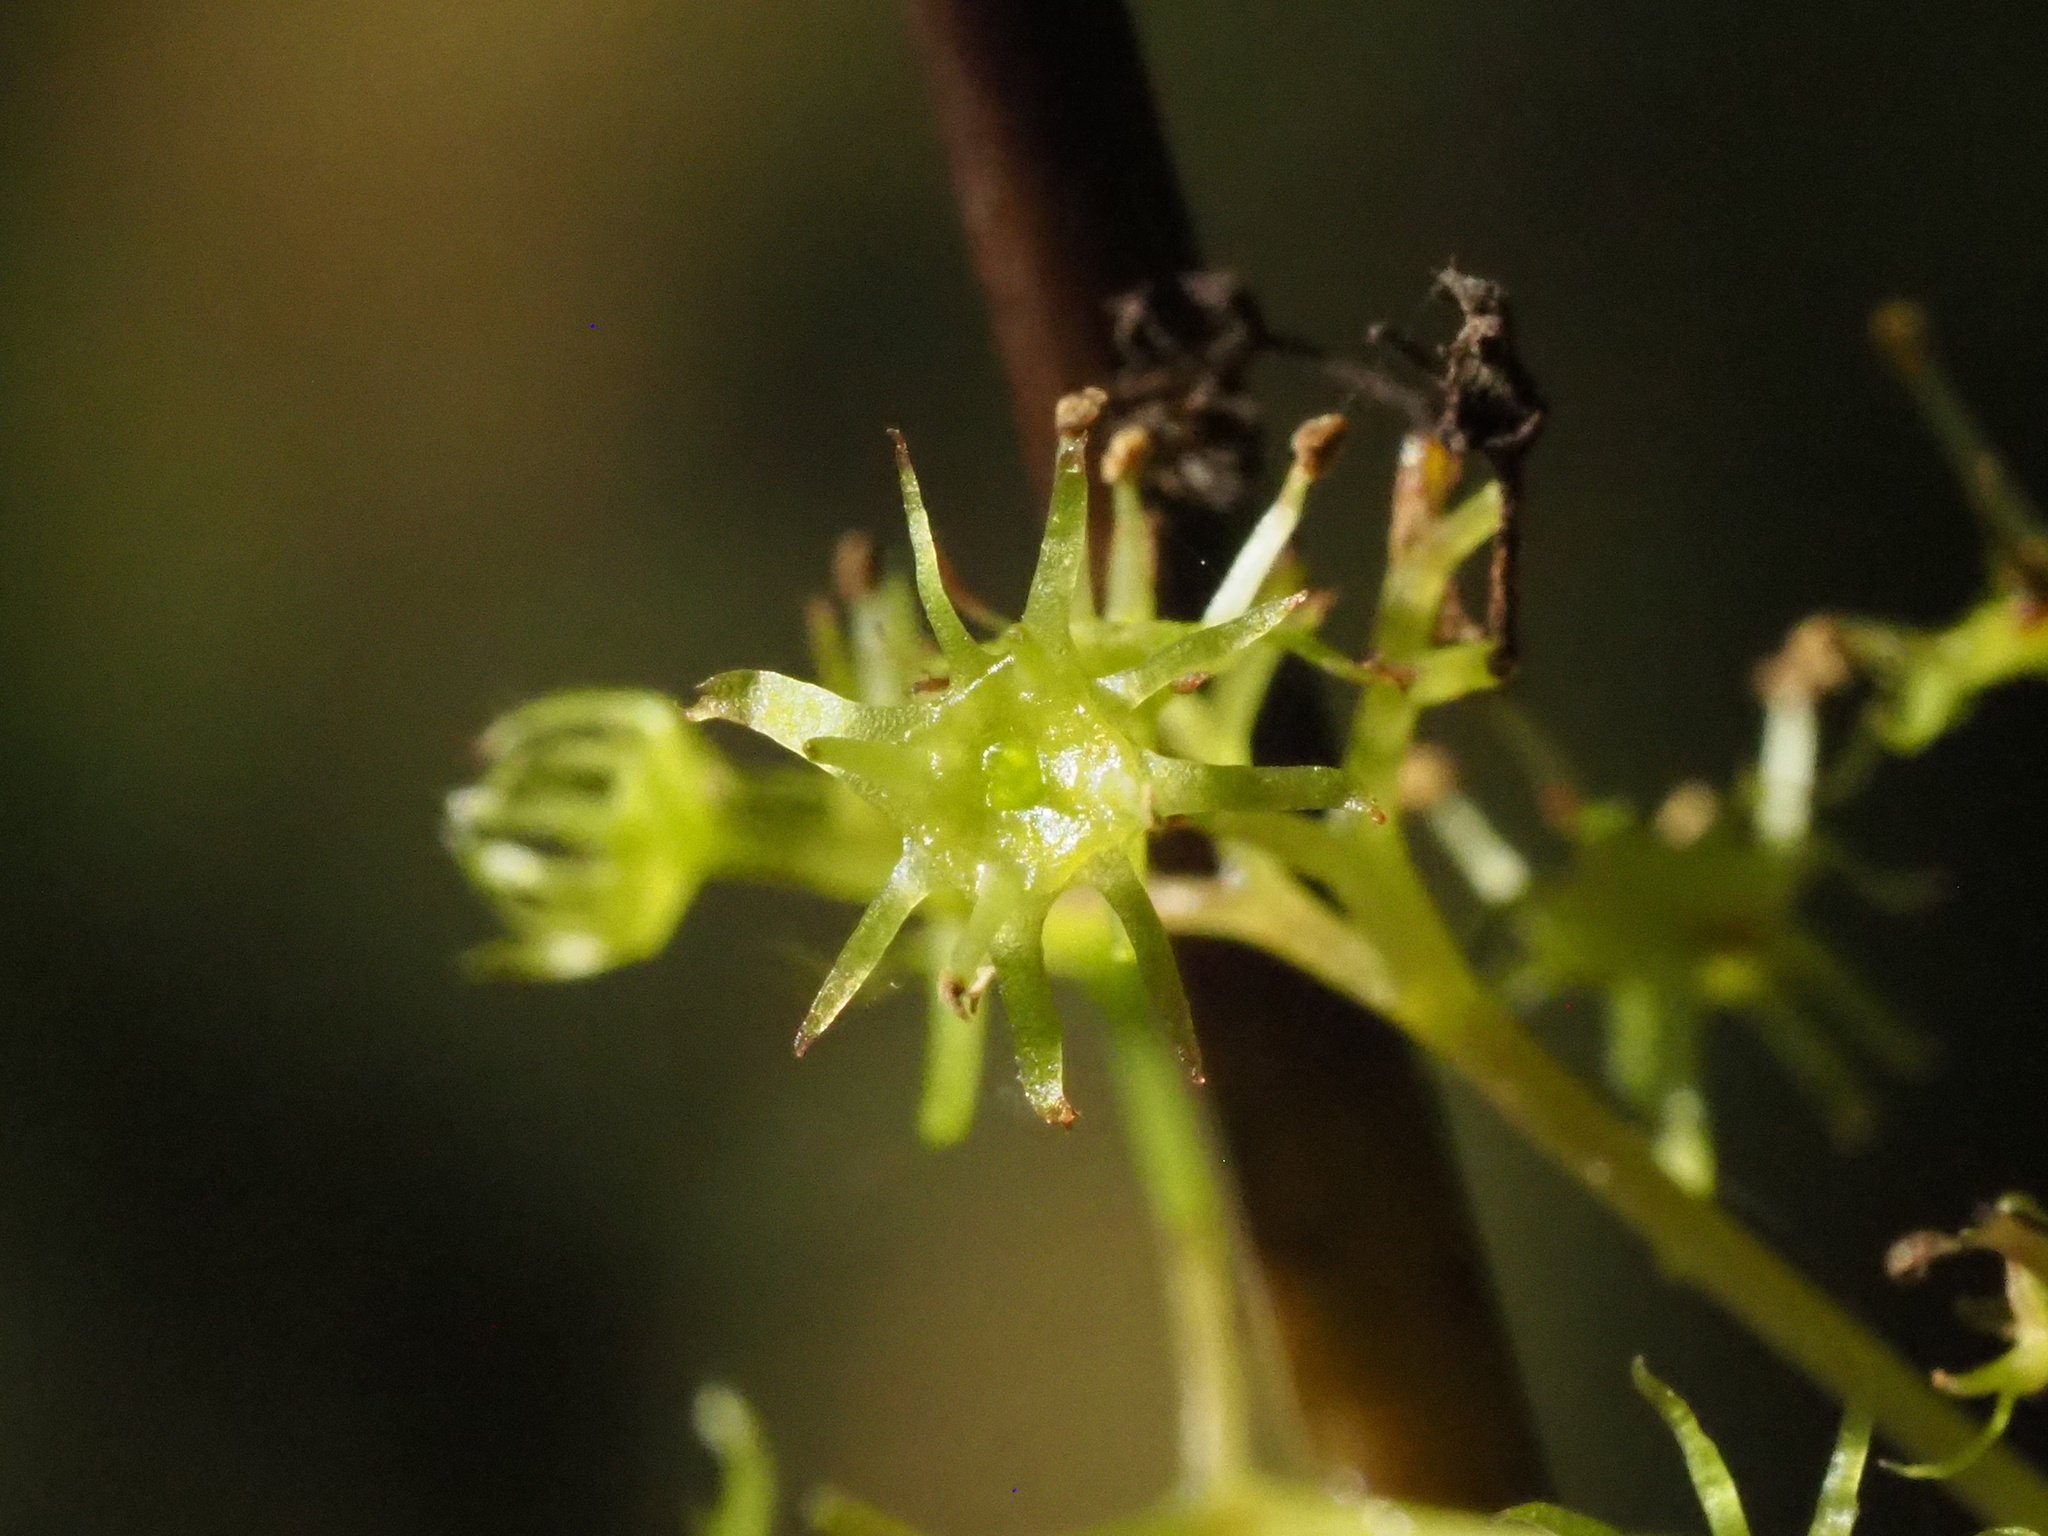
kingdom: Plantae
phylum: Tracheophyta
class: Magnoliopsida
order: Huerteales
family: Dipentodontaceae
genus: Perrottetia
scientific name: Perrottetia arisanensis
